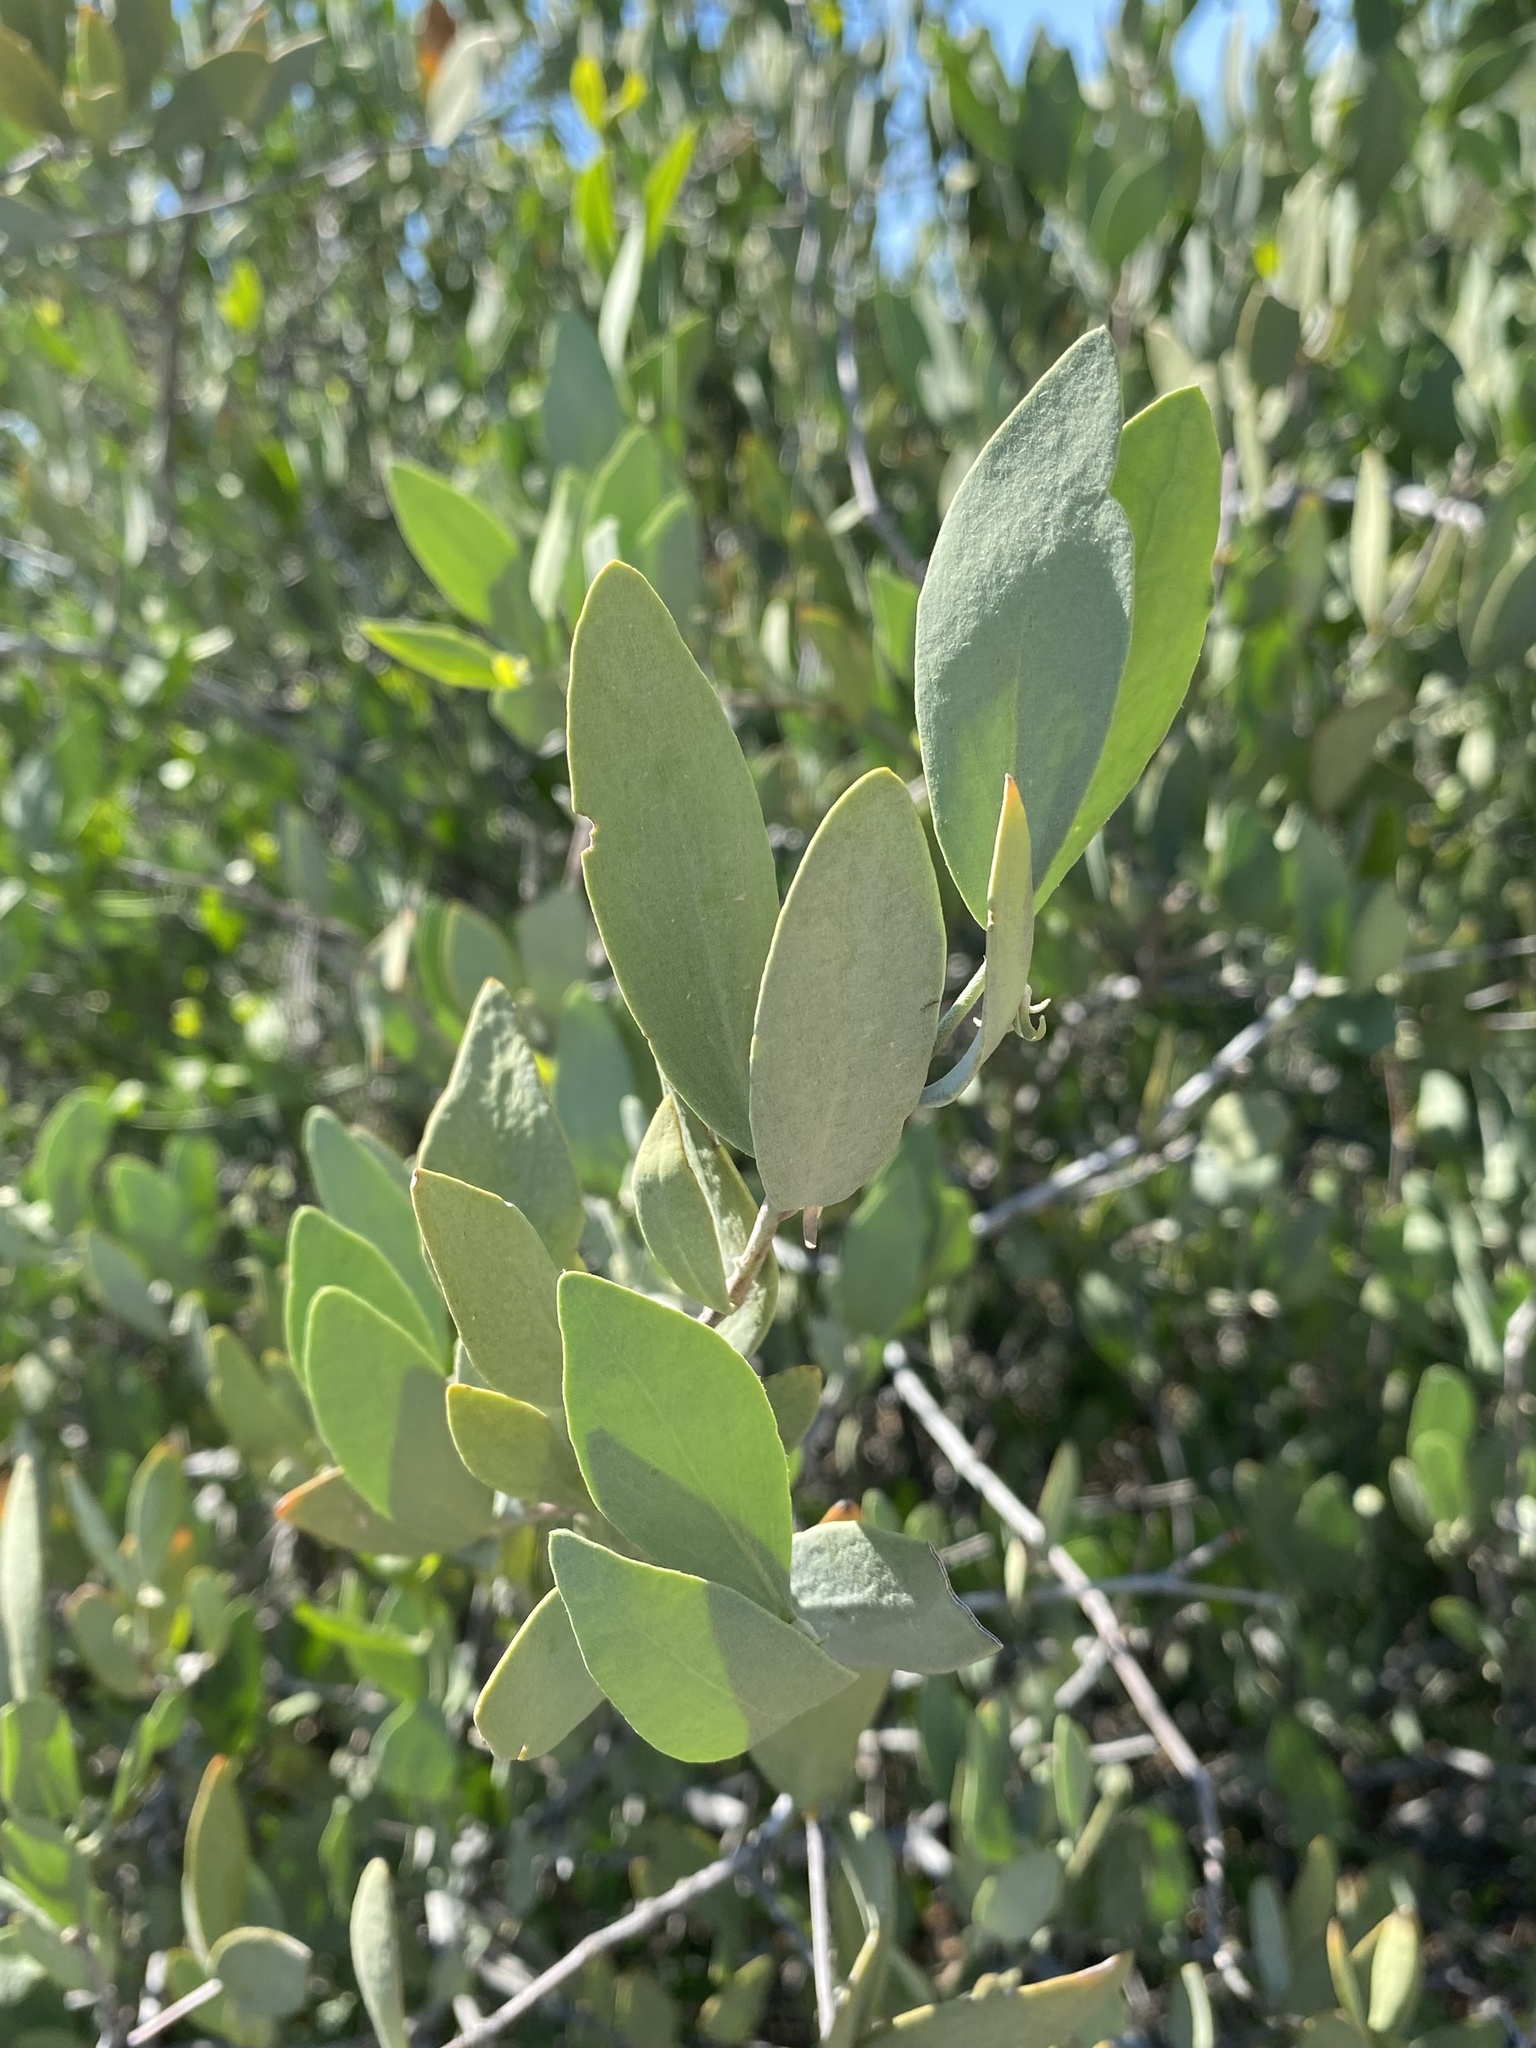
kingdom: Plantae
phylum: Tracheophyta
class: Magnoliopsida
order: Caryophyllales
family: Simmondsiaceae
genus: Simmondsia
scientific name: Simmondsia chinensis
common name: Jojoba
